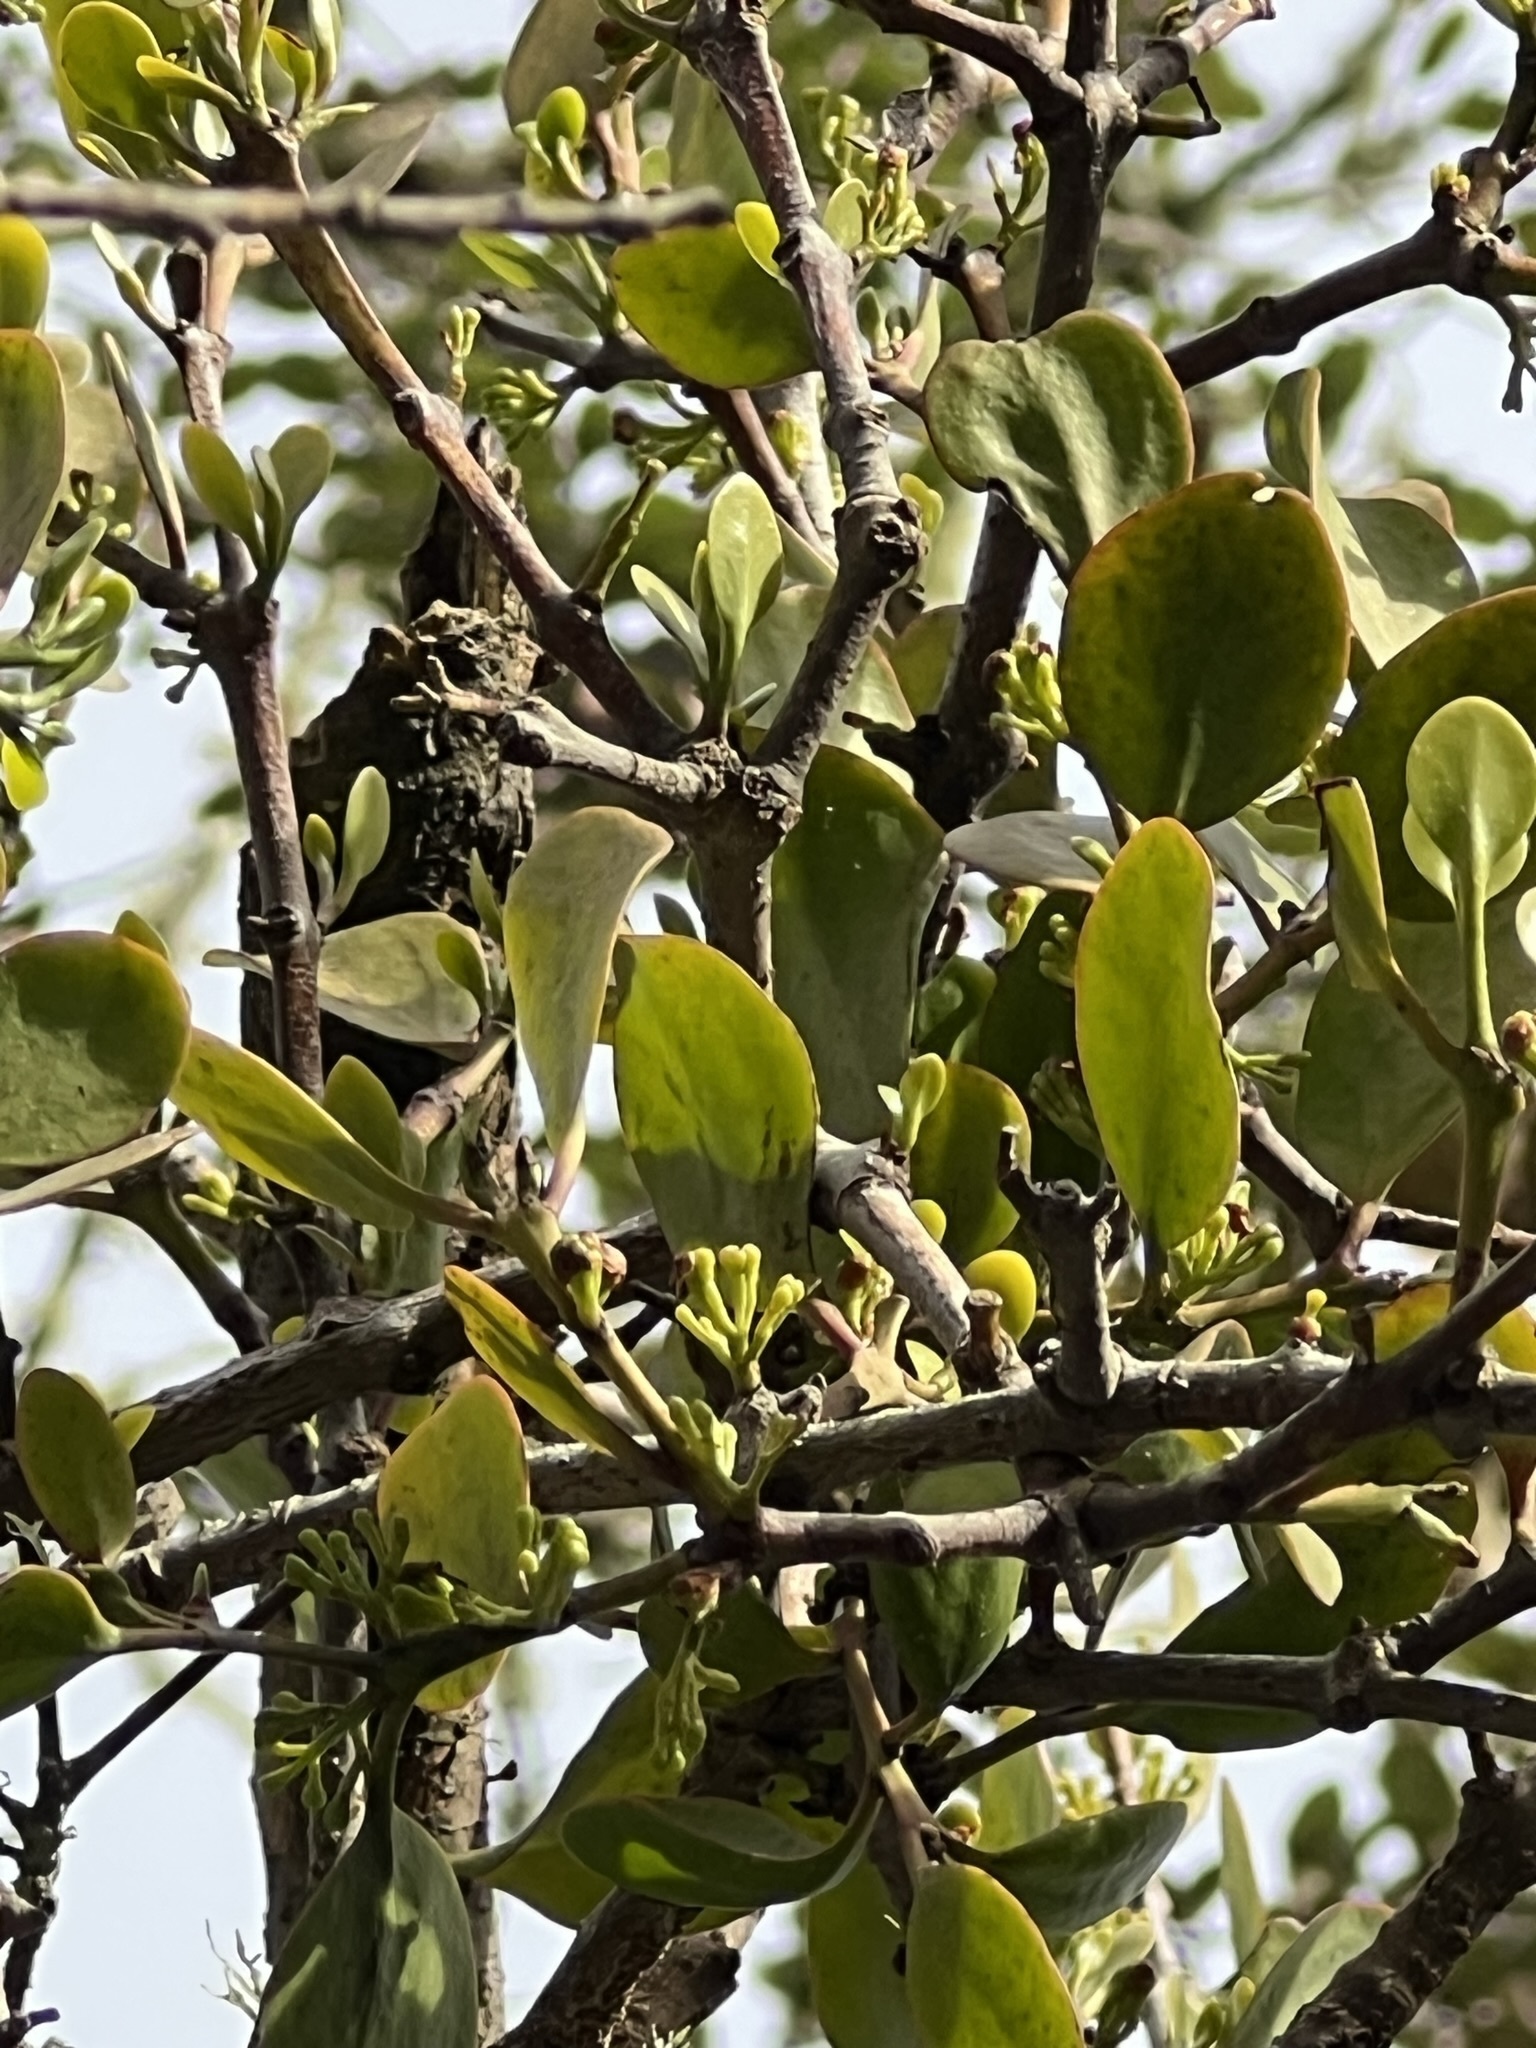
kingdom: Plantae
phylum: Tracheophyta
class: Magnoliopsida
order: Santalales
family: Loranthaceae
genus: Ileostylus
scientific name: Ileostylus micranthus
